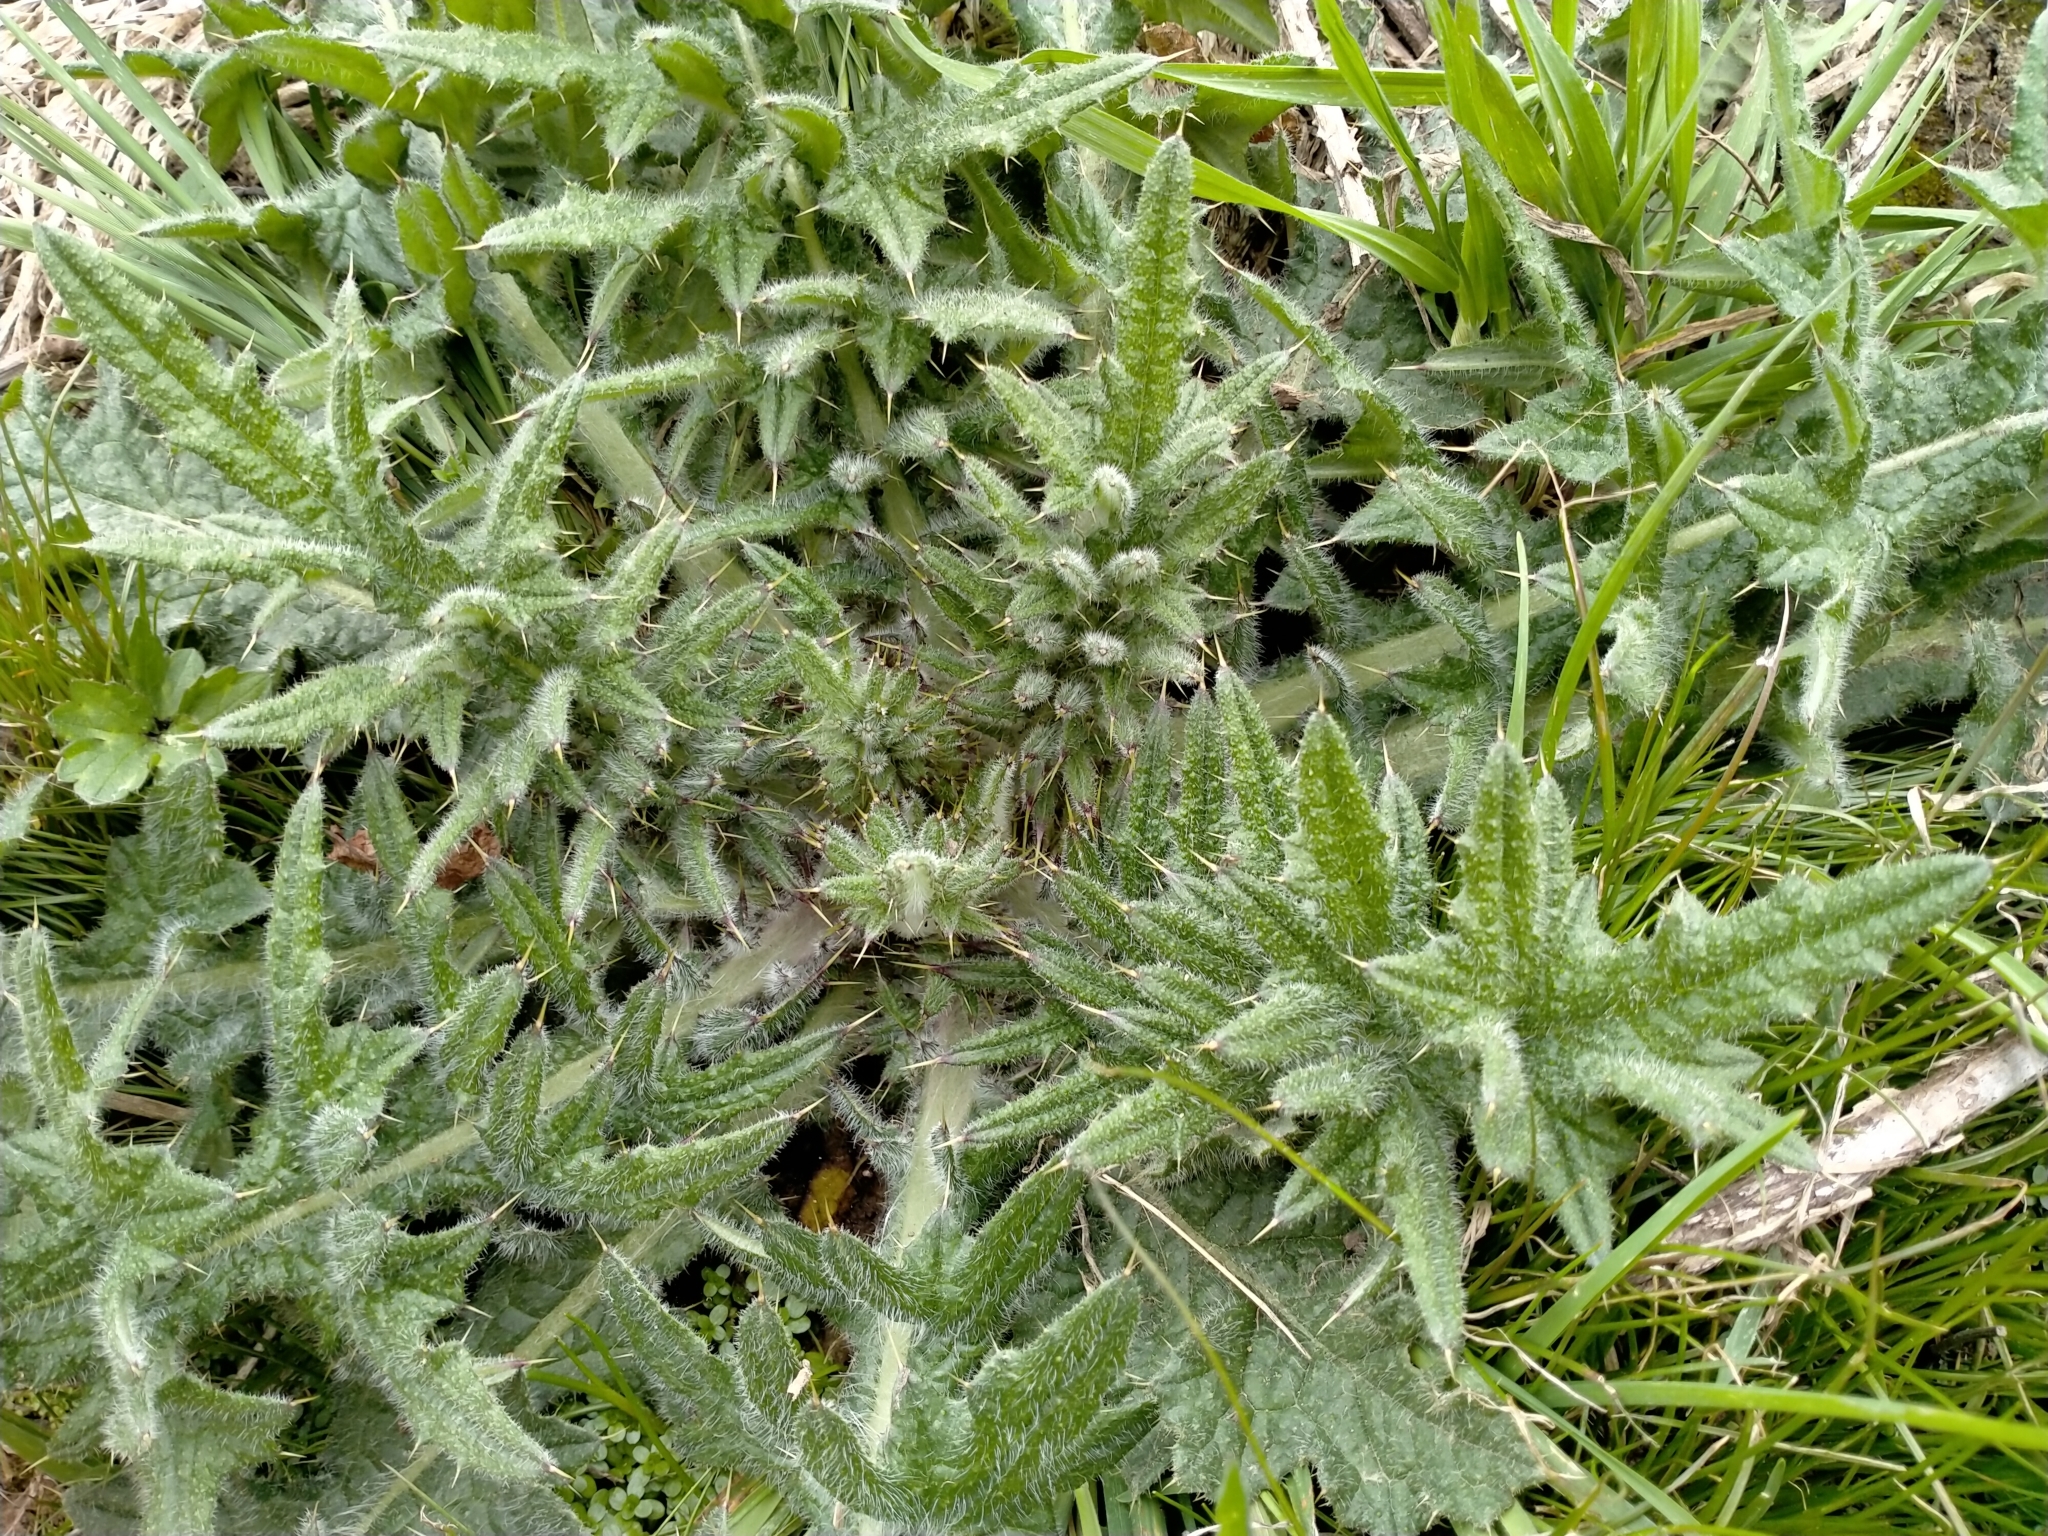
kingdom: Plantae
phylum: Tracheophyta
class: Magnoliopsida
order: Asterales
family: Asteraceae
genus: Cirsium
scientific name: Cirsium vulgare
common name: Bull thistle
